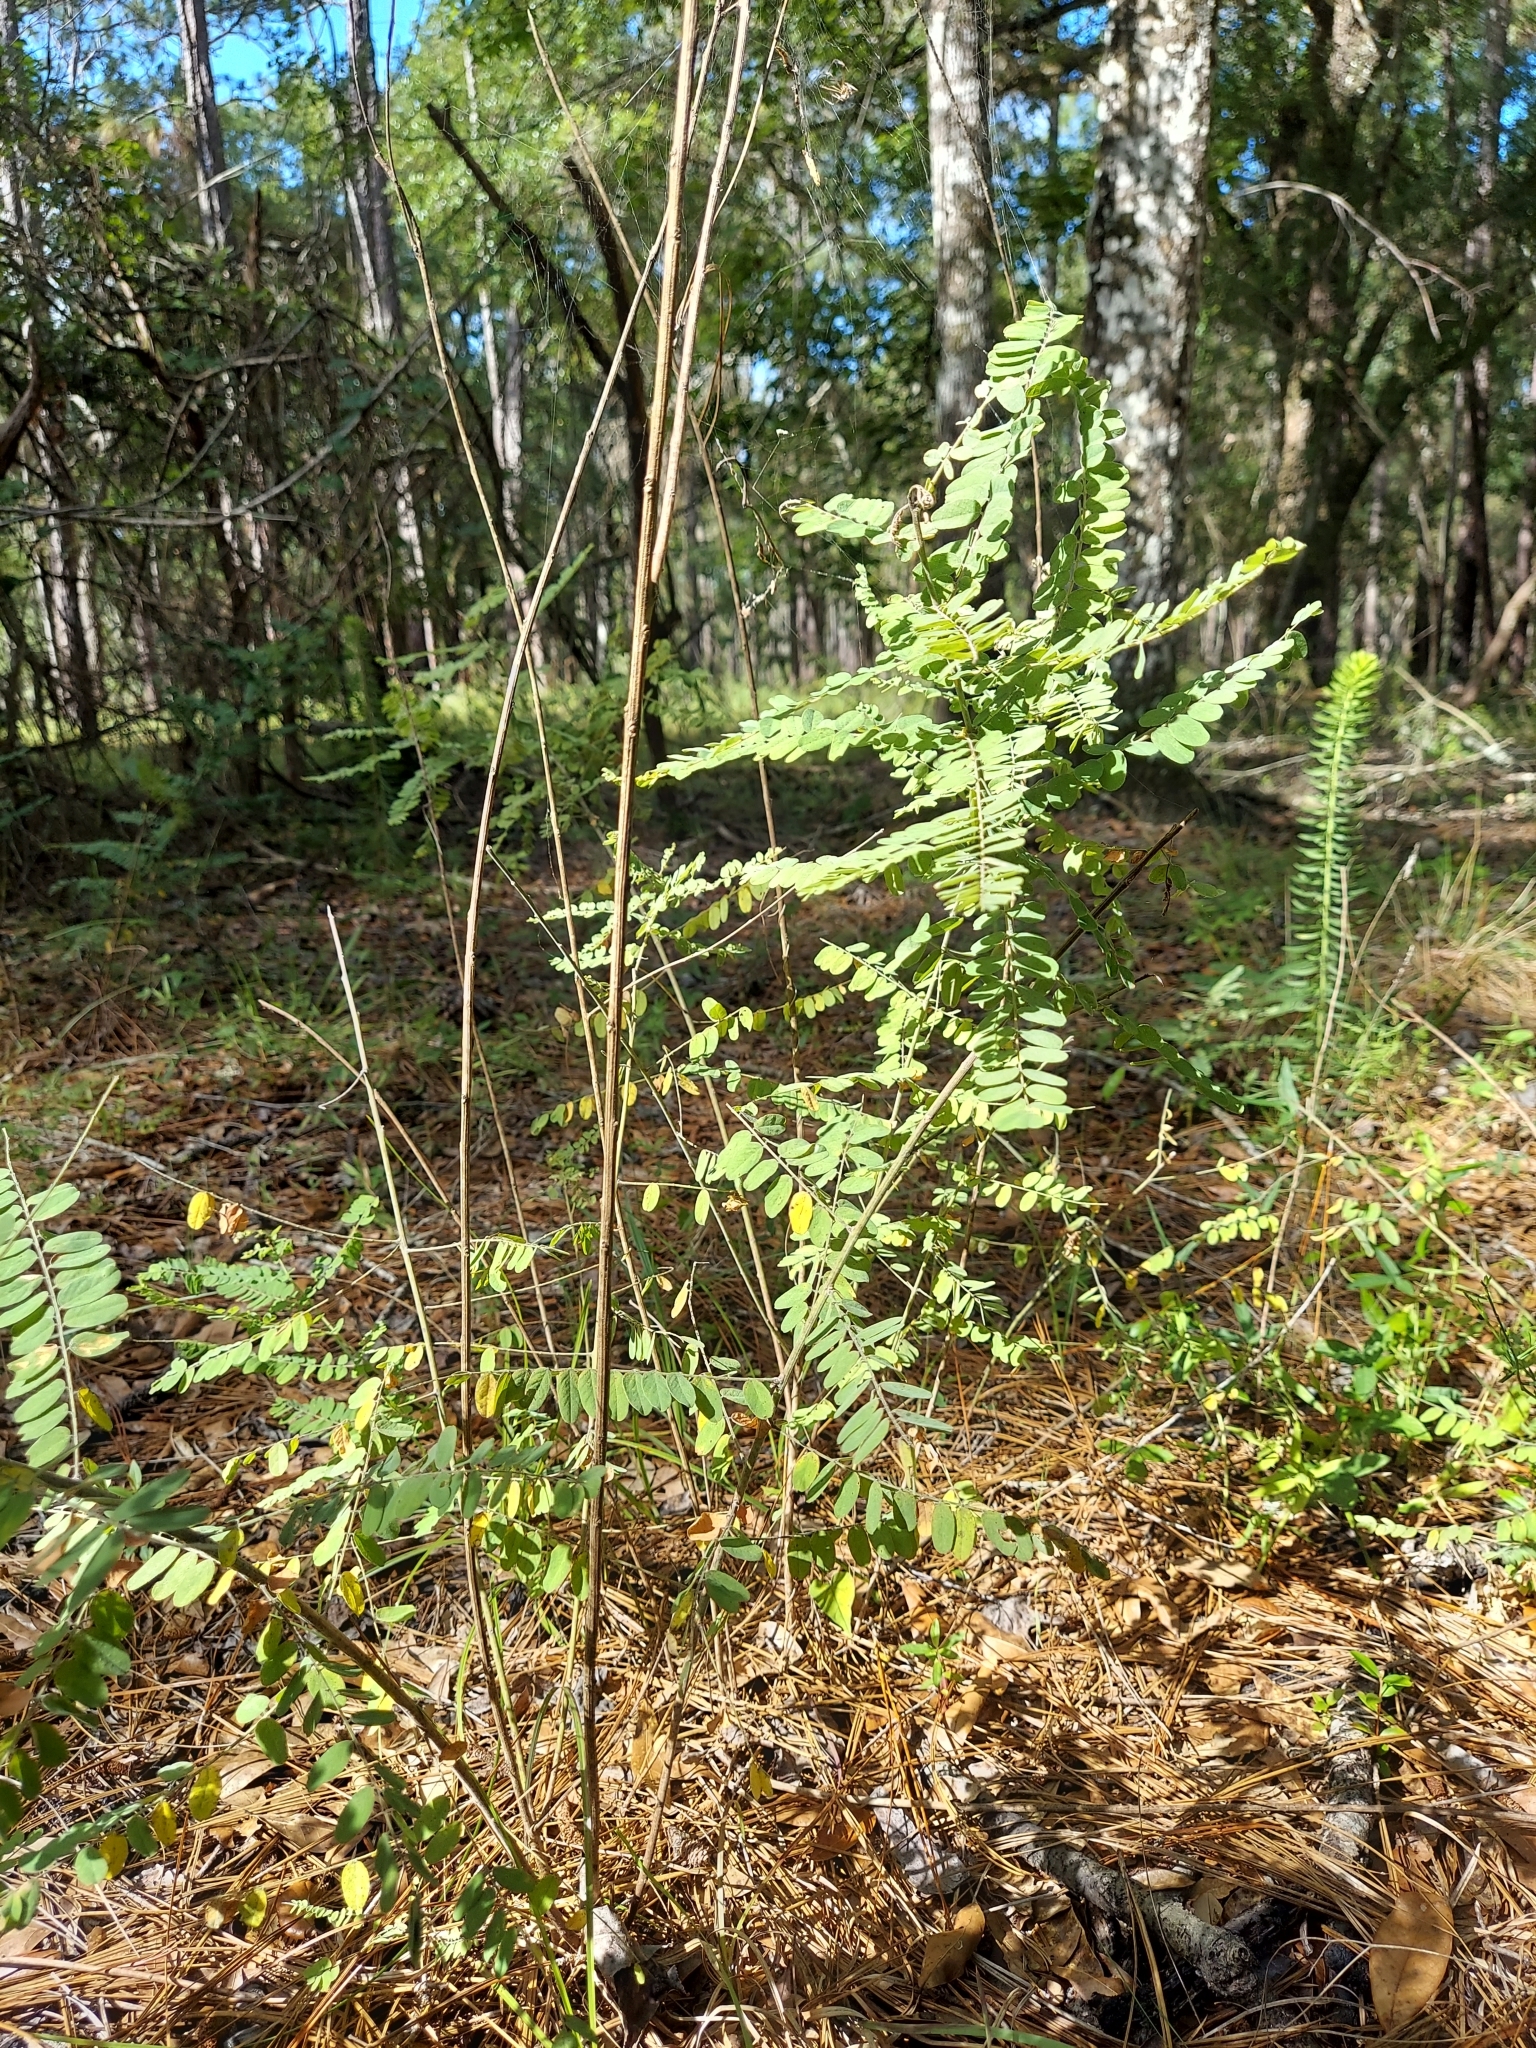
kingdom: Plantae
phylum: Tracheophyta
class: Magnoliopsida
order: Fabales
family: Fabaceae
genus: Amorpha
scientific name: Amorpha herbacea
